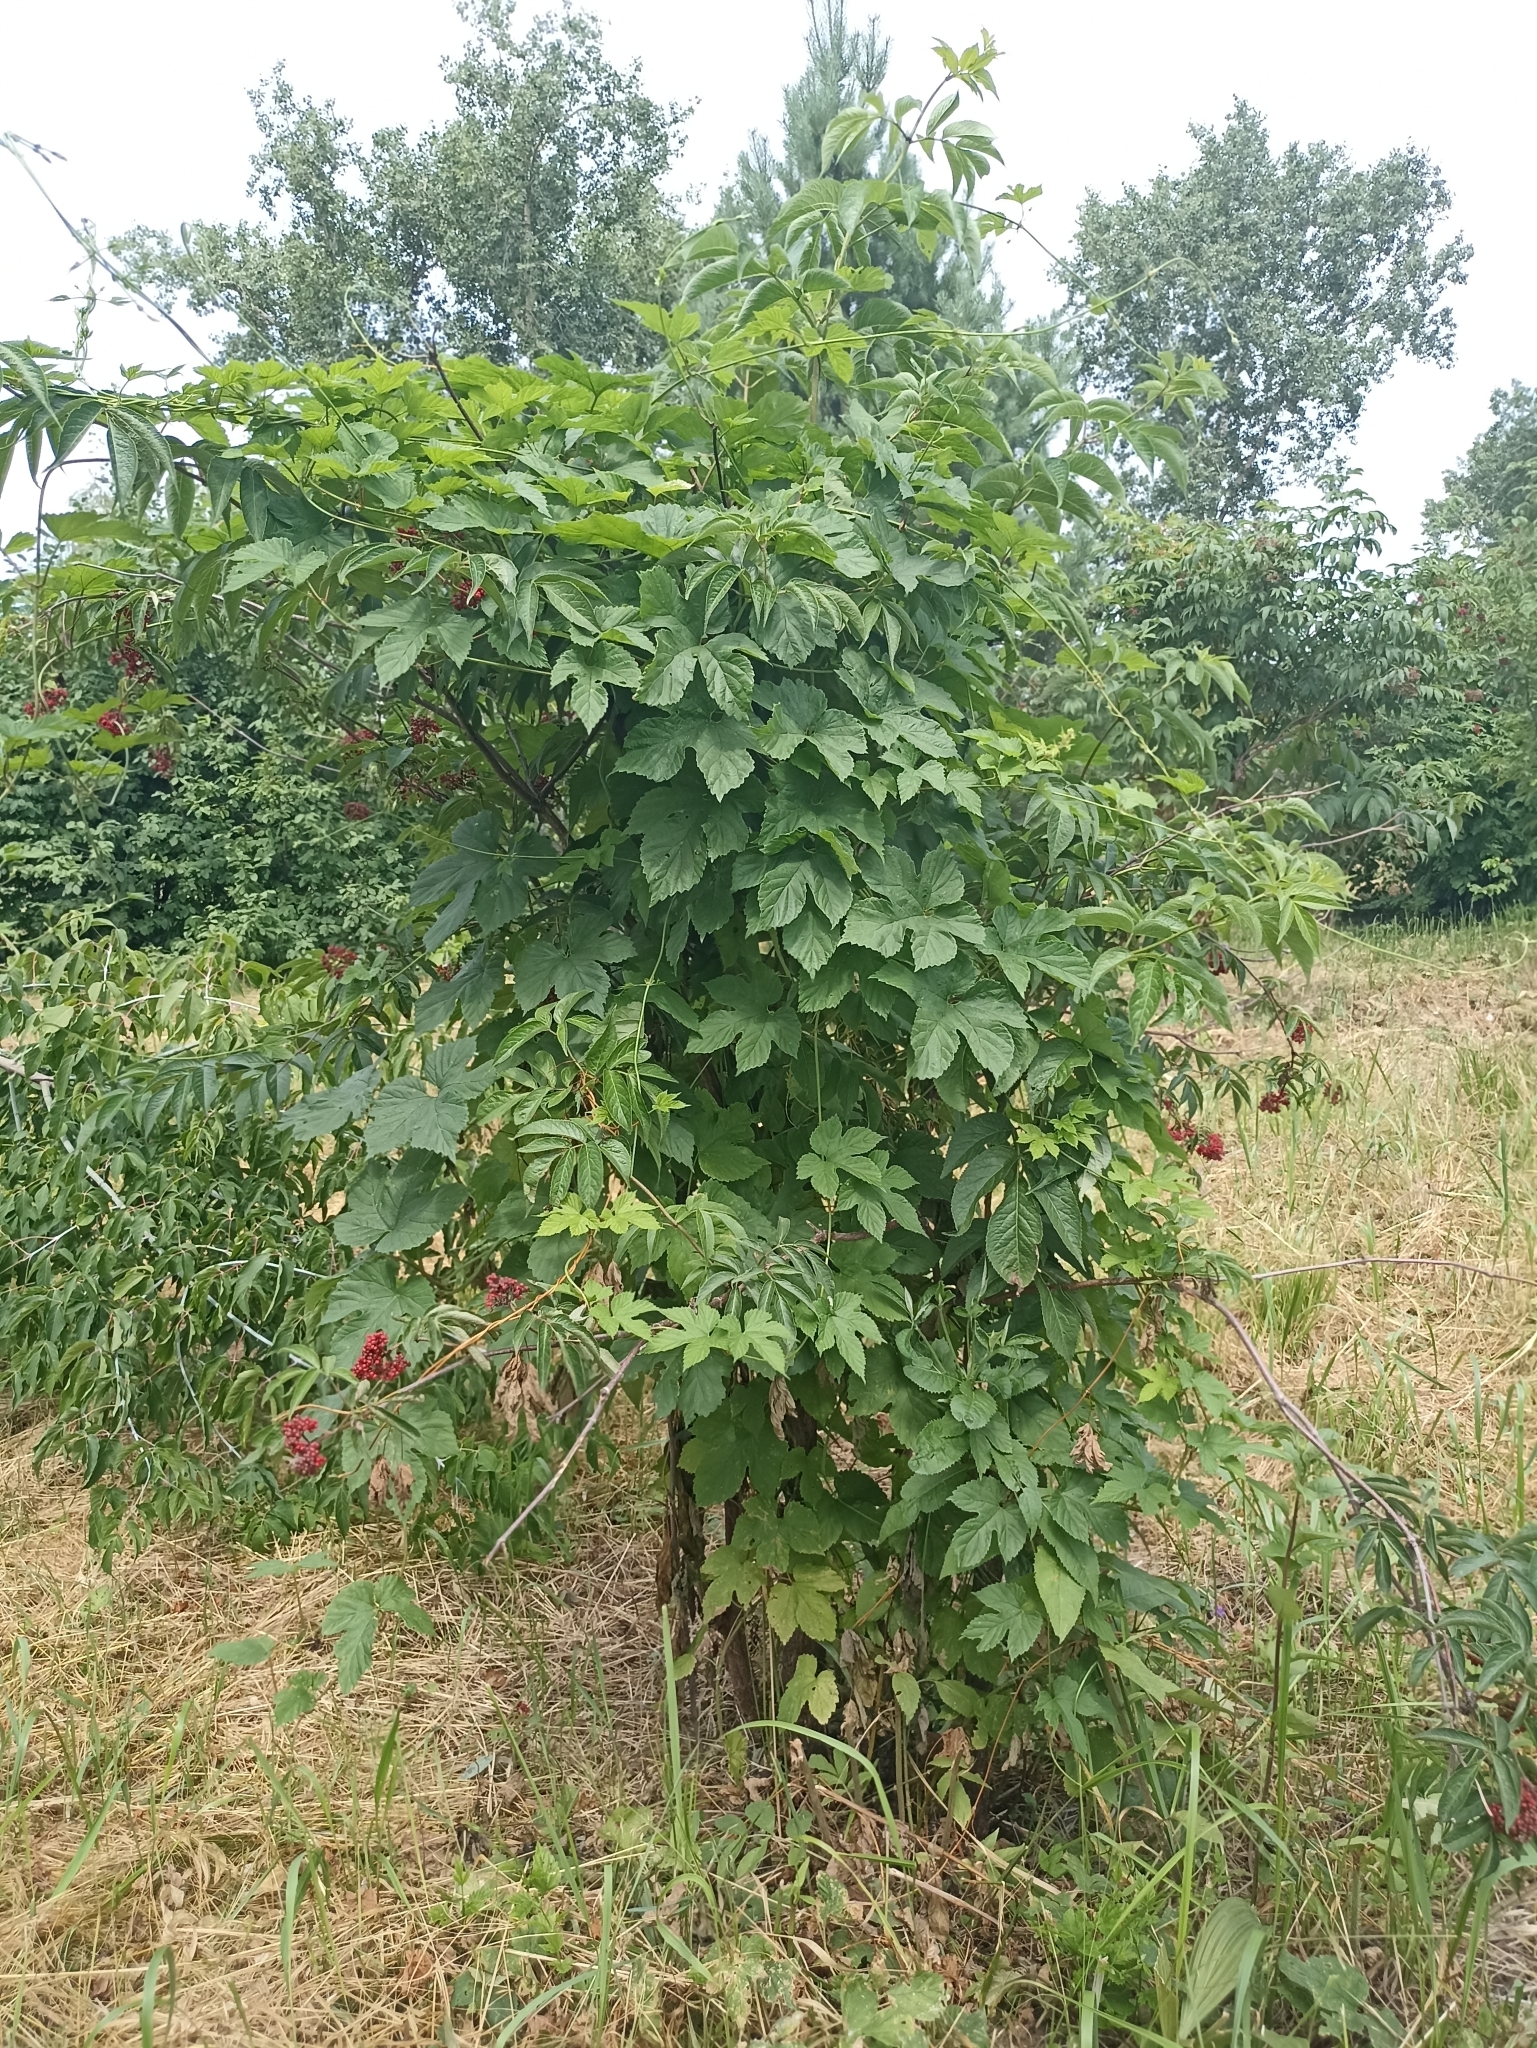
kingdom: Plantae
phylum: Tracheophyta
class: Magnoliopsida
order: Rosales
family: Cannabaceae
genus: Humulus
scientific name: Humulus lupulus
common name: Hop
